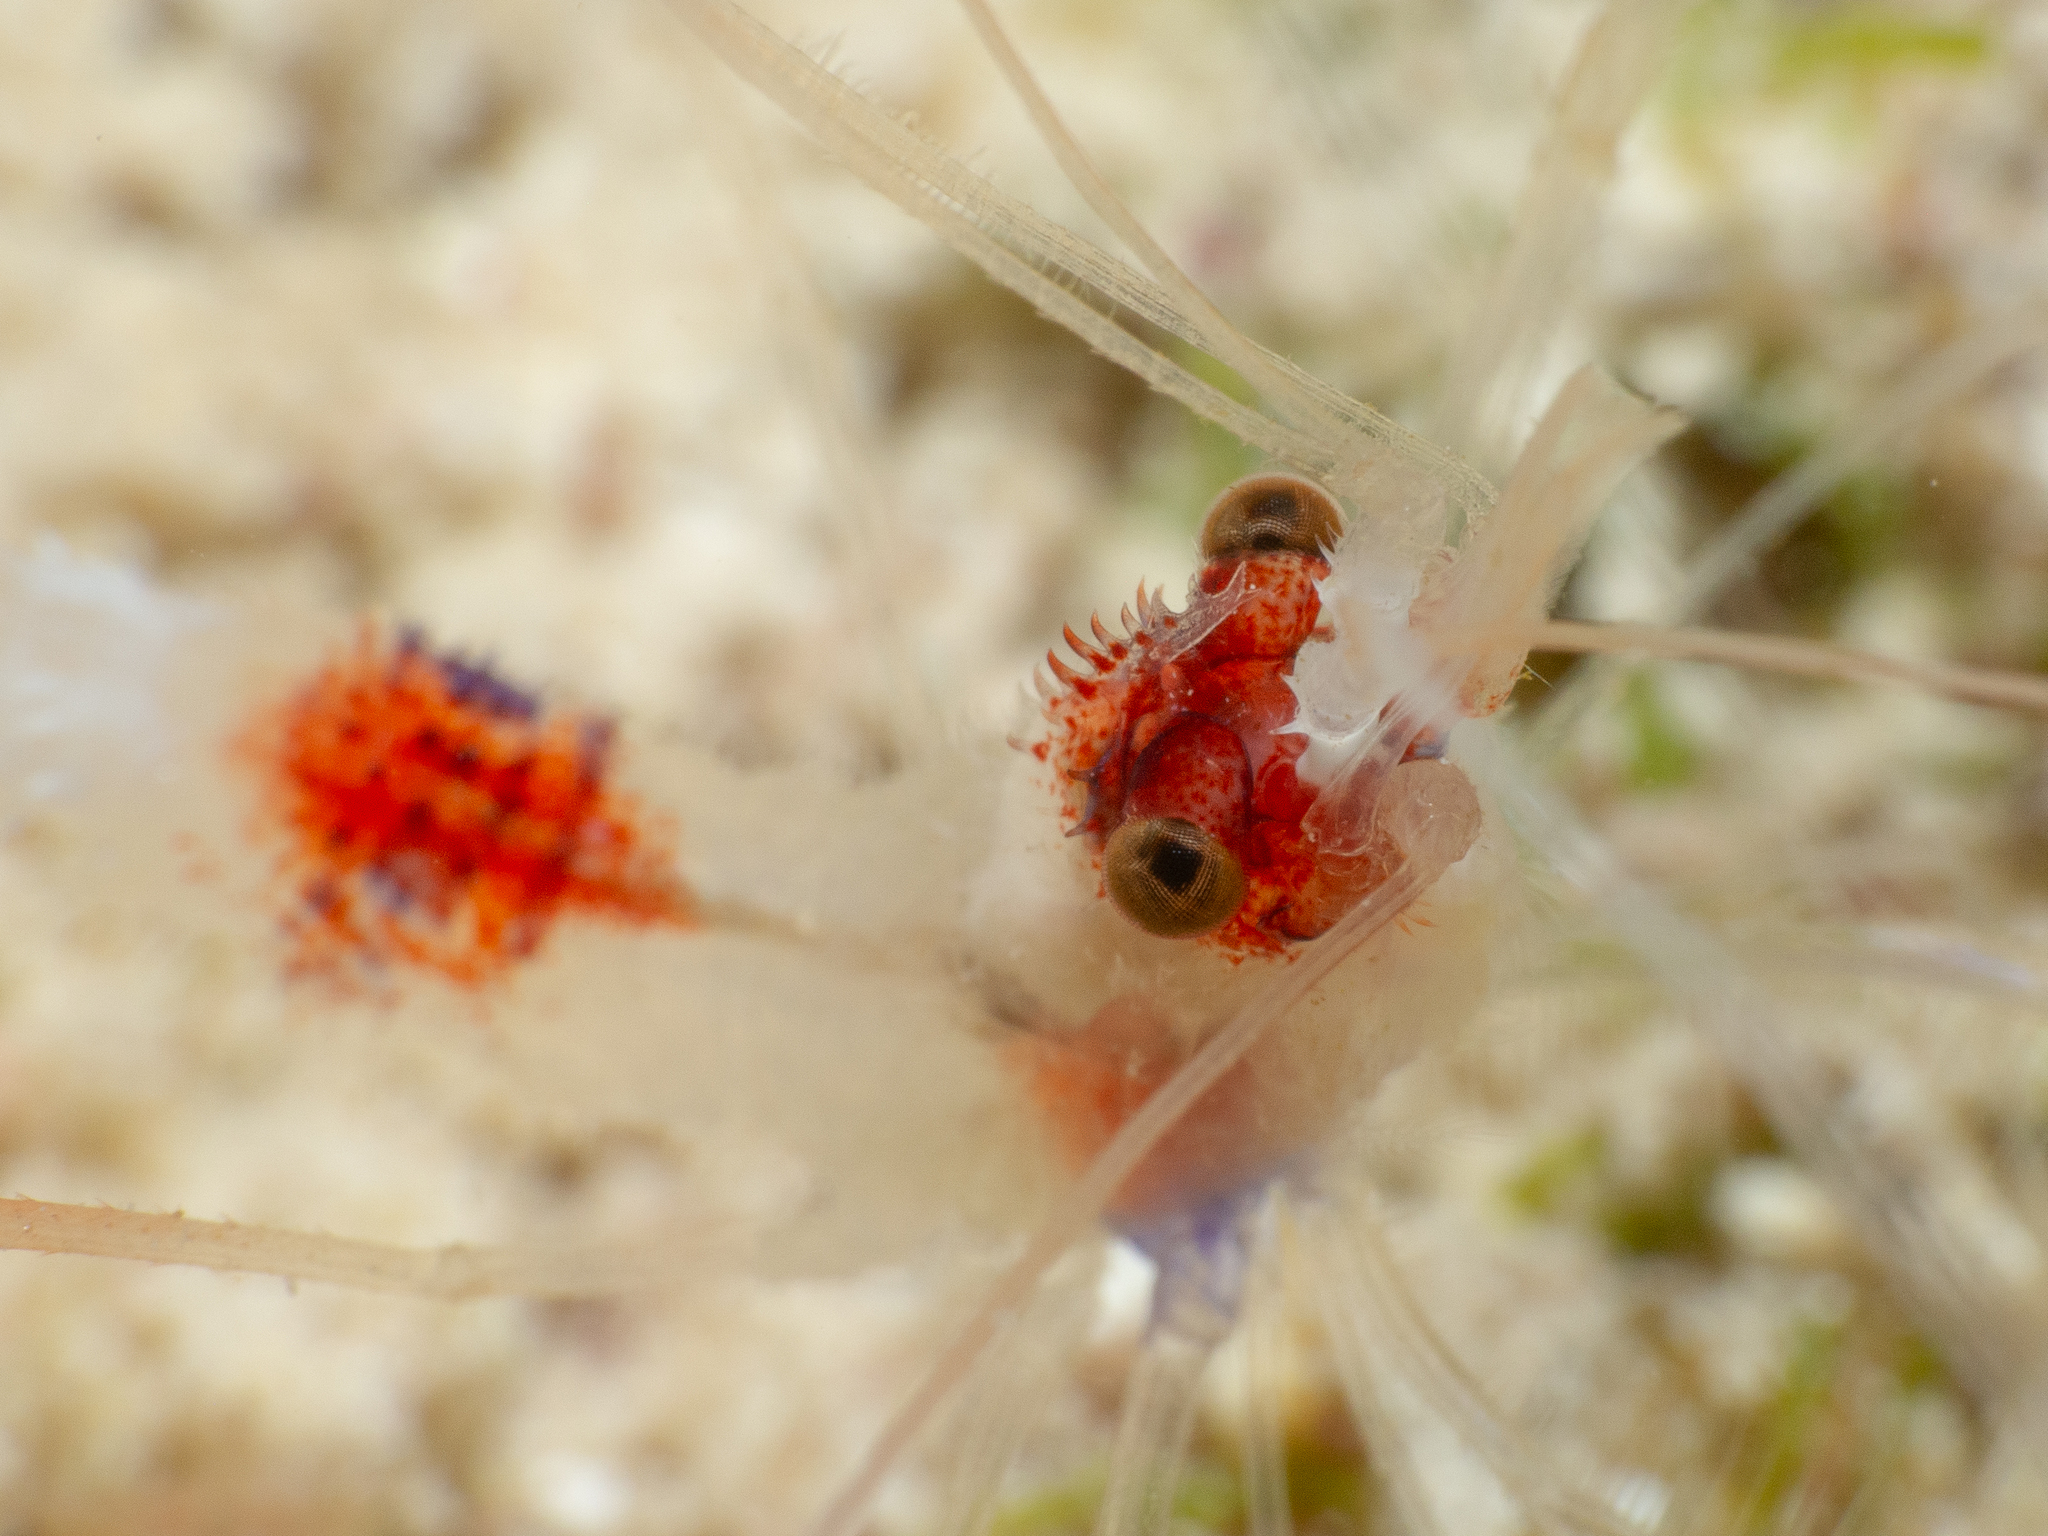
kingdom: Animalia
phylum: Arthropoda
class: Malacostraca
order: Decapoda
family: Stenopodidae
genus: Stenopus
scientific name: Stenopus hispidus
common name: Banded coral shrimp
